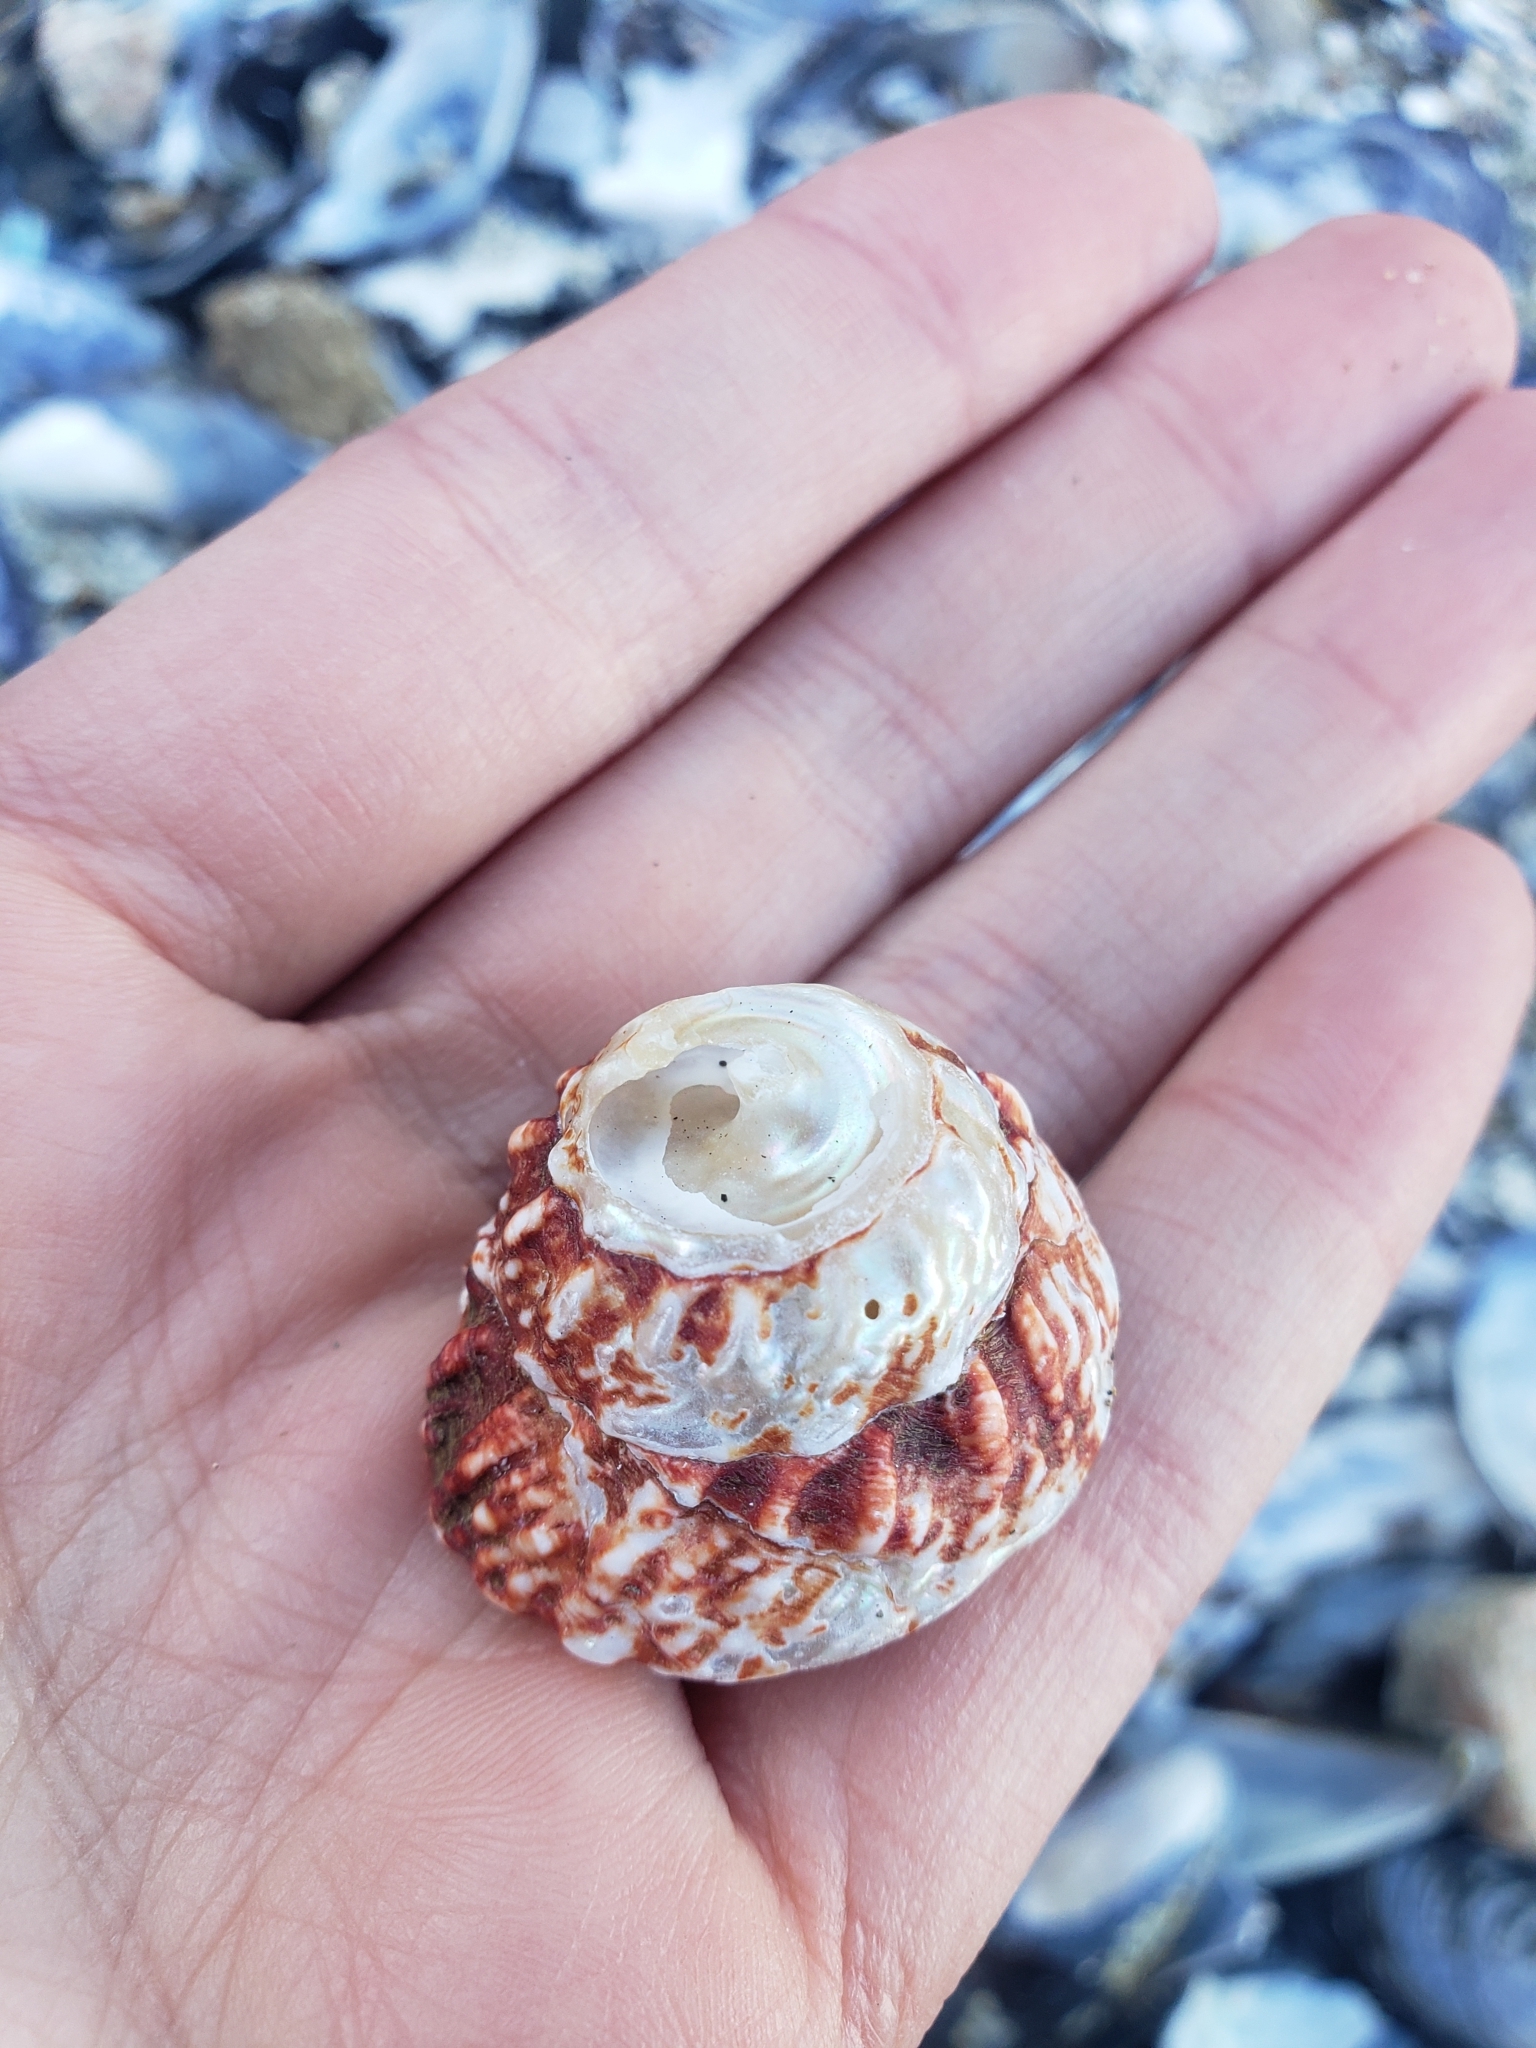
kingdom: Animalia
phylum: Mollusca
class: Gastropoda
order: Trochida
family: Turbinidae
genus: Pomaulax
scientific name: Pomaulax gibberosus
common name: Red turban
